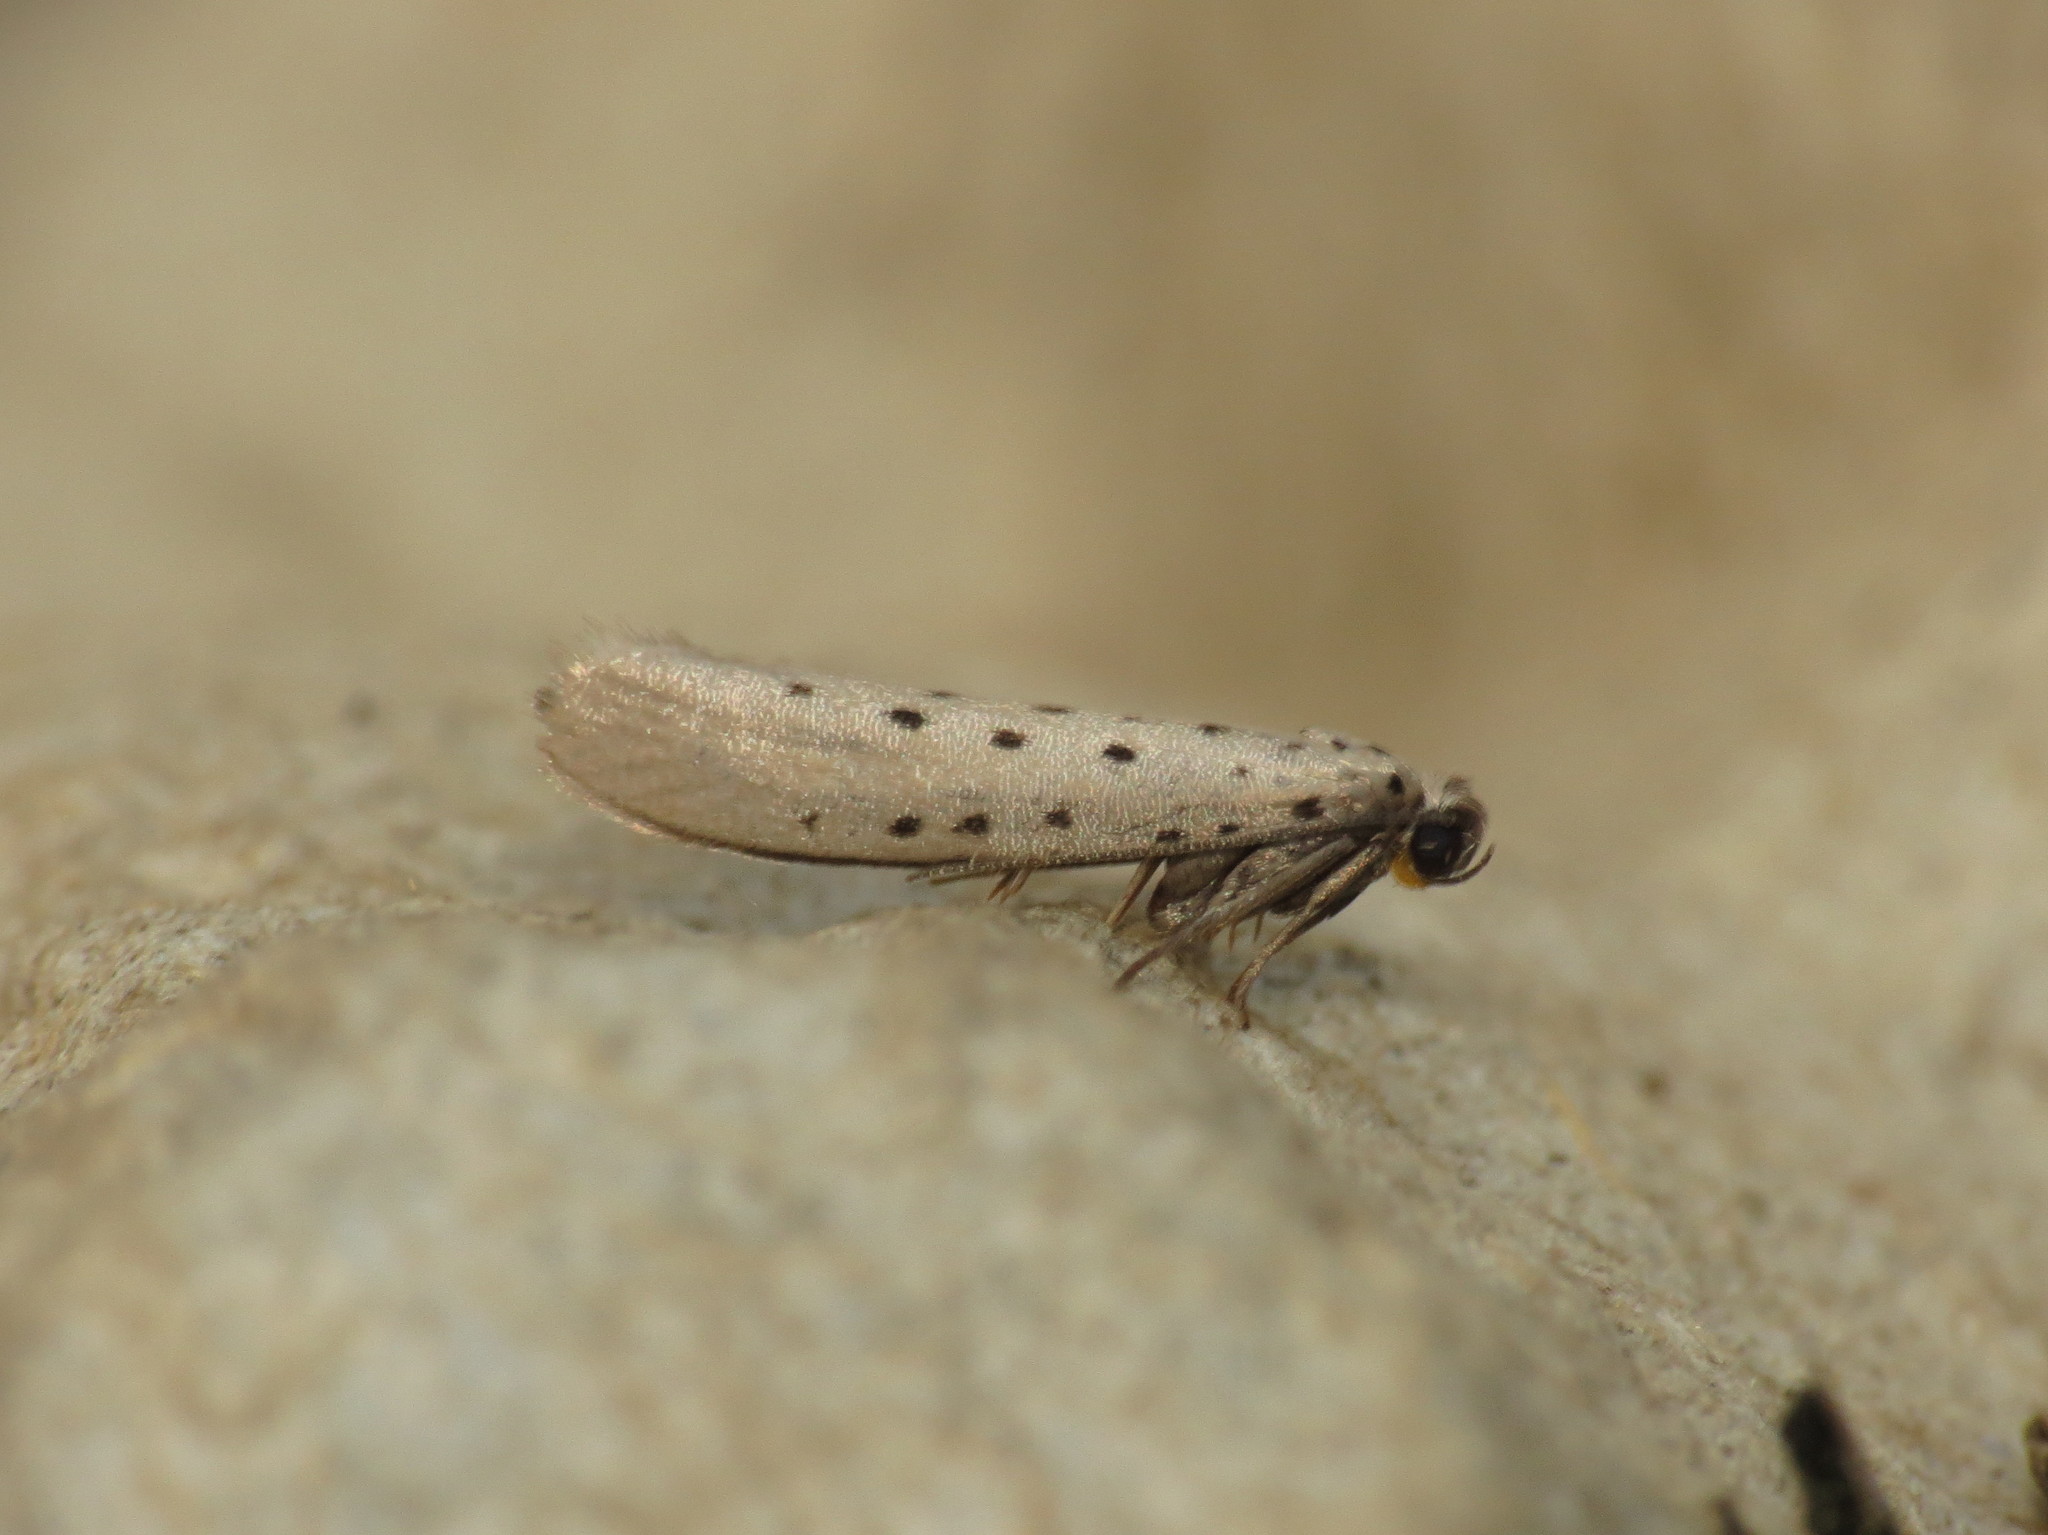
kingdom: Animalia
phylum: Arthropoda
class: Insecta
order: Lepidoptera
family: Yponomeutidae
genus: Yponomeuta
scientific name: Yponomeuta vigintipunctata
